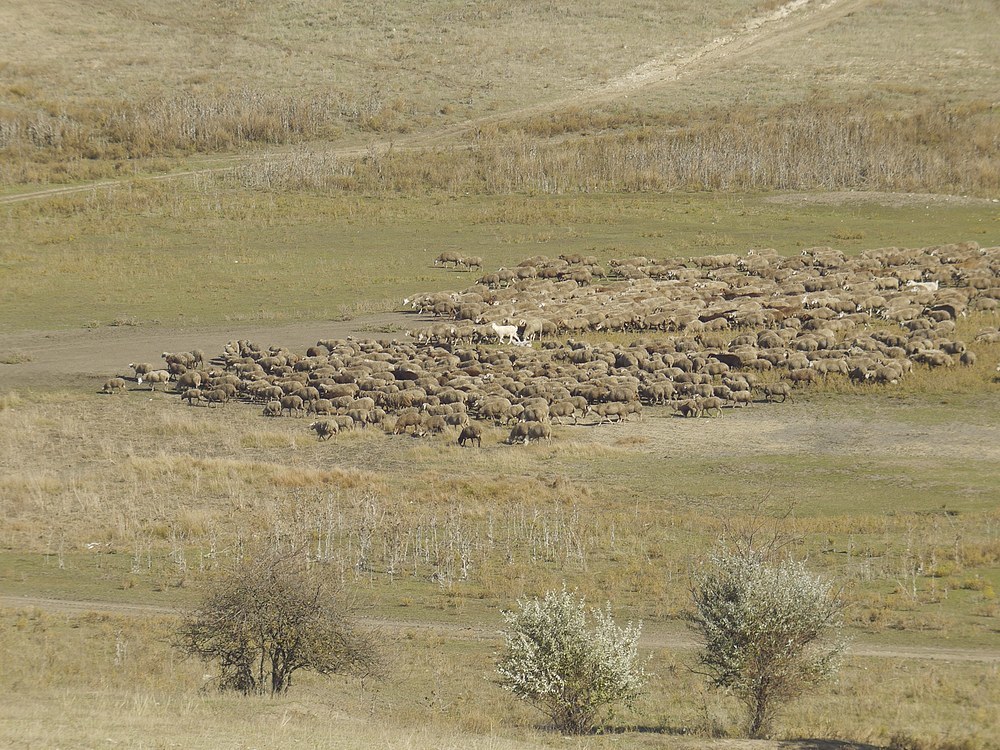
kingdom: Animalia
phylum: Chordata
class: Mammalia
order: Artiodactyla
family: Bovidae
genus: Ovis
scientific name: Ovis aries
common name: Domestic sheep
